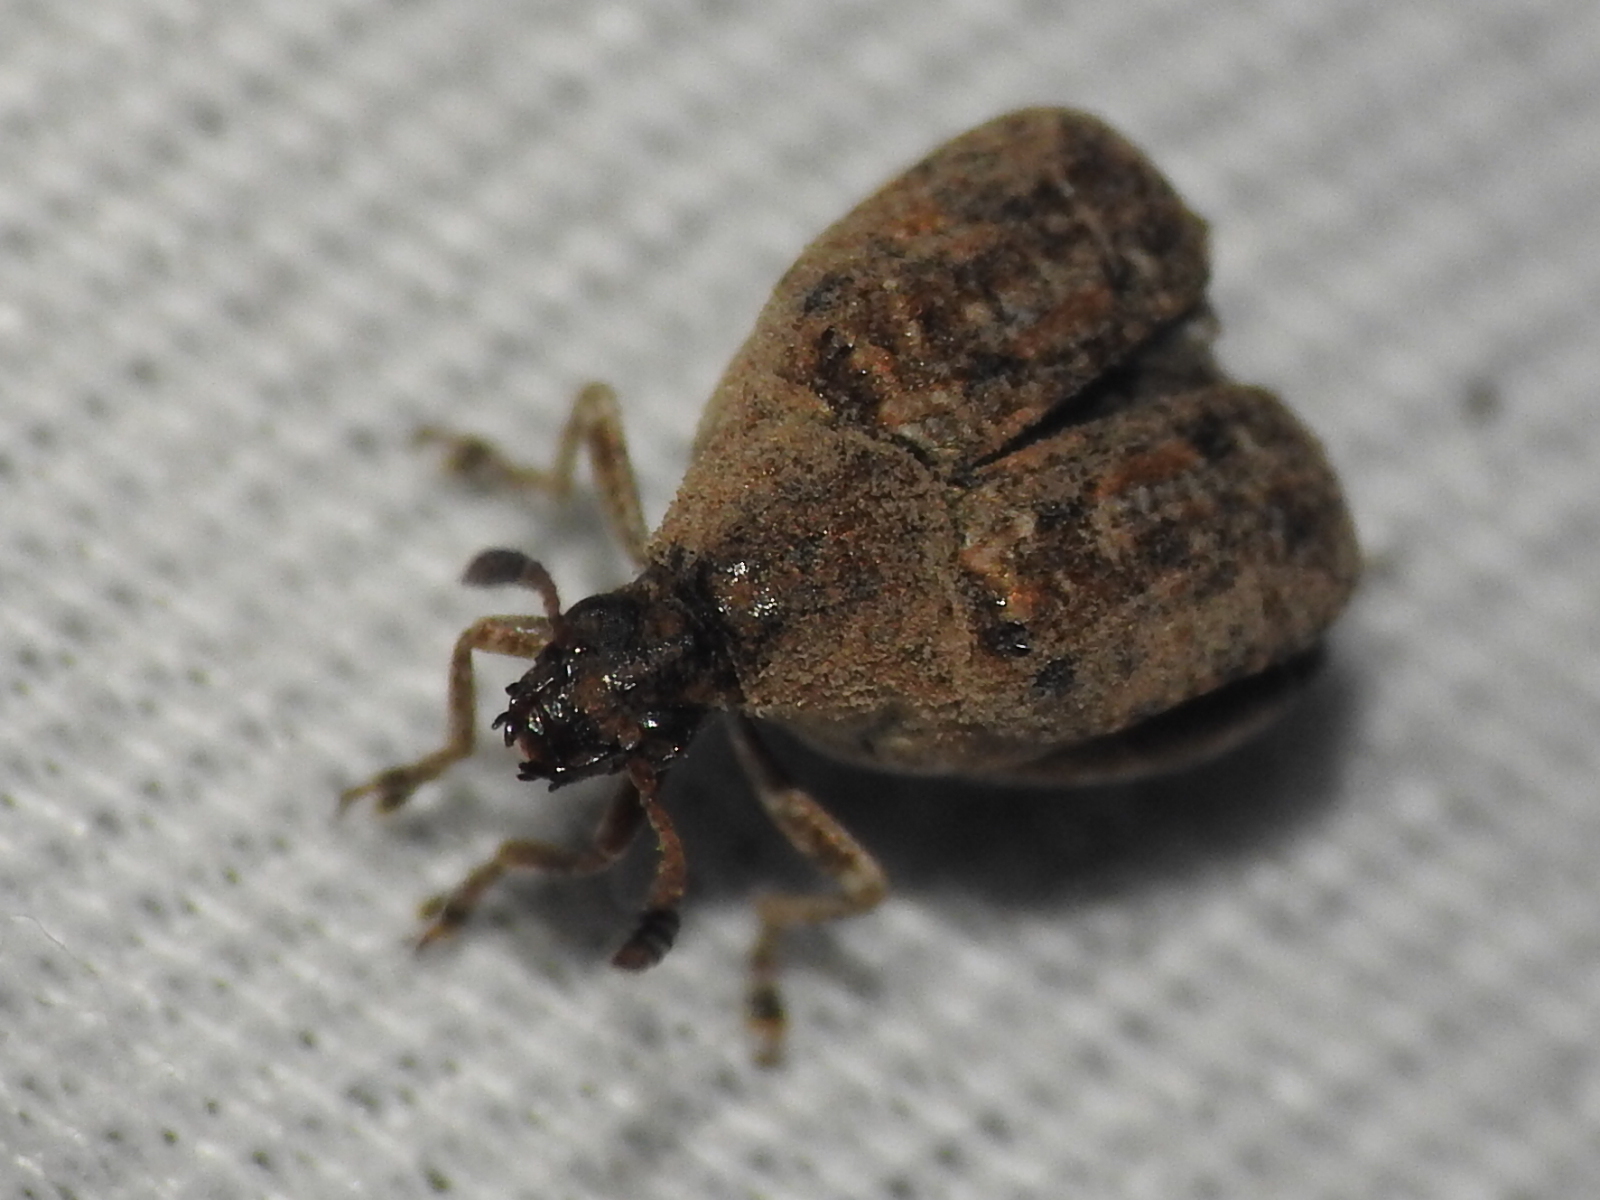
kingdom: Animalia
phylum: Arthropoda
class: Insecta
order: Coleoptera
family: Chrysomelidae
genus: Merobruchus
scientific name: Merobruchus major
